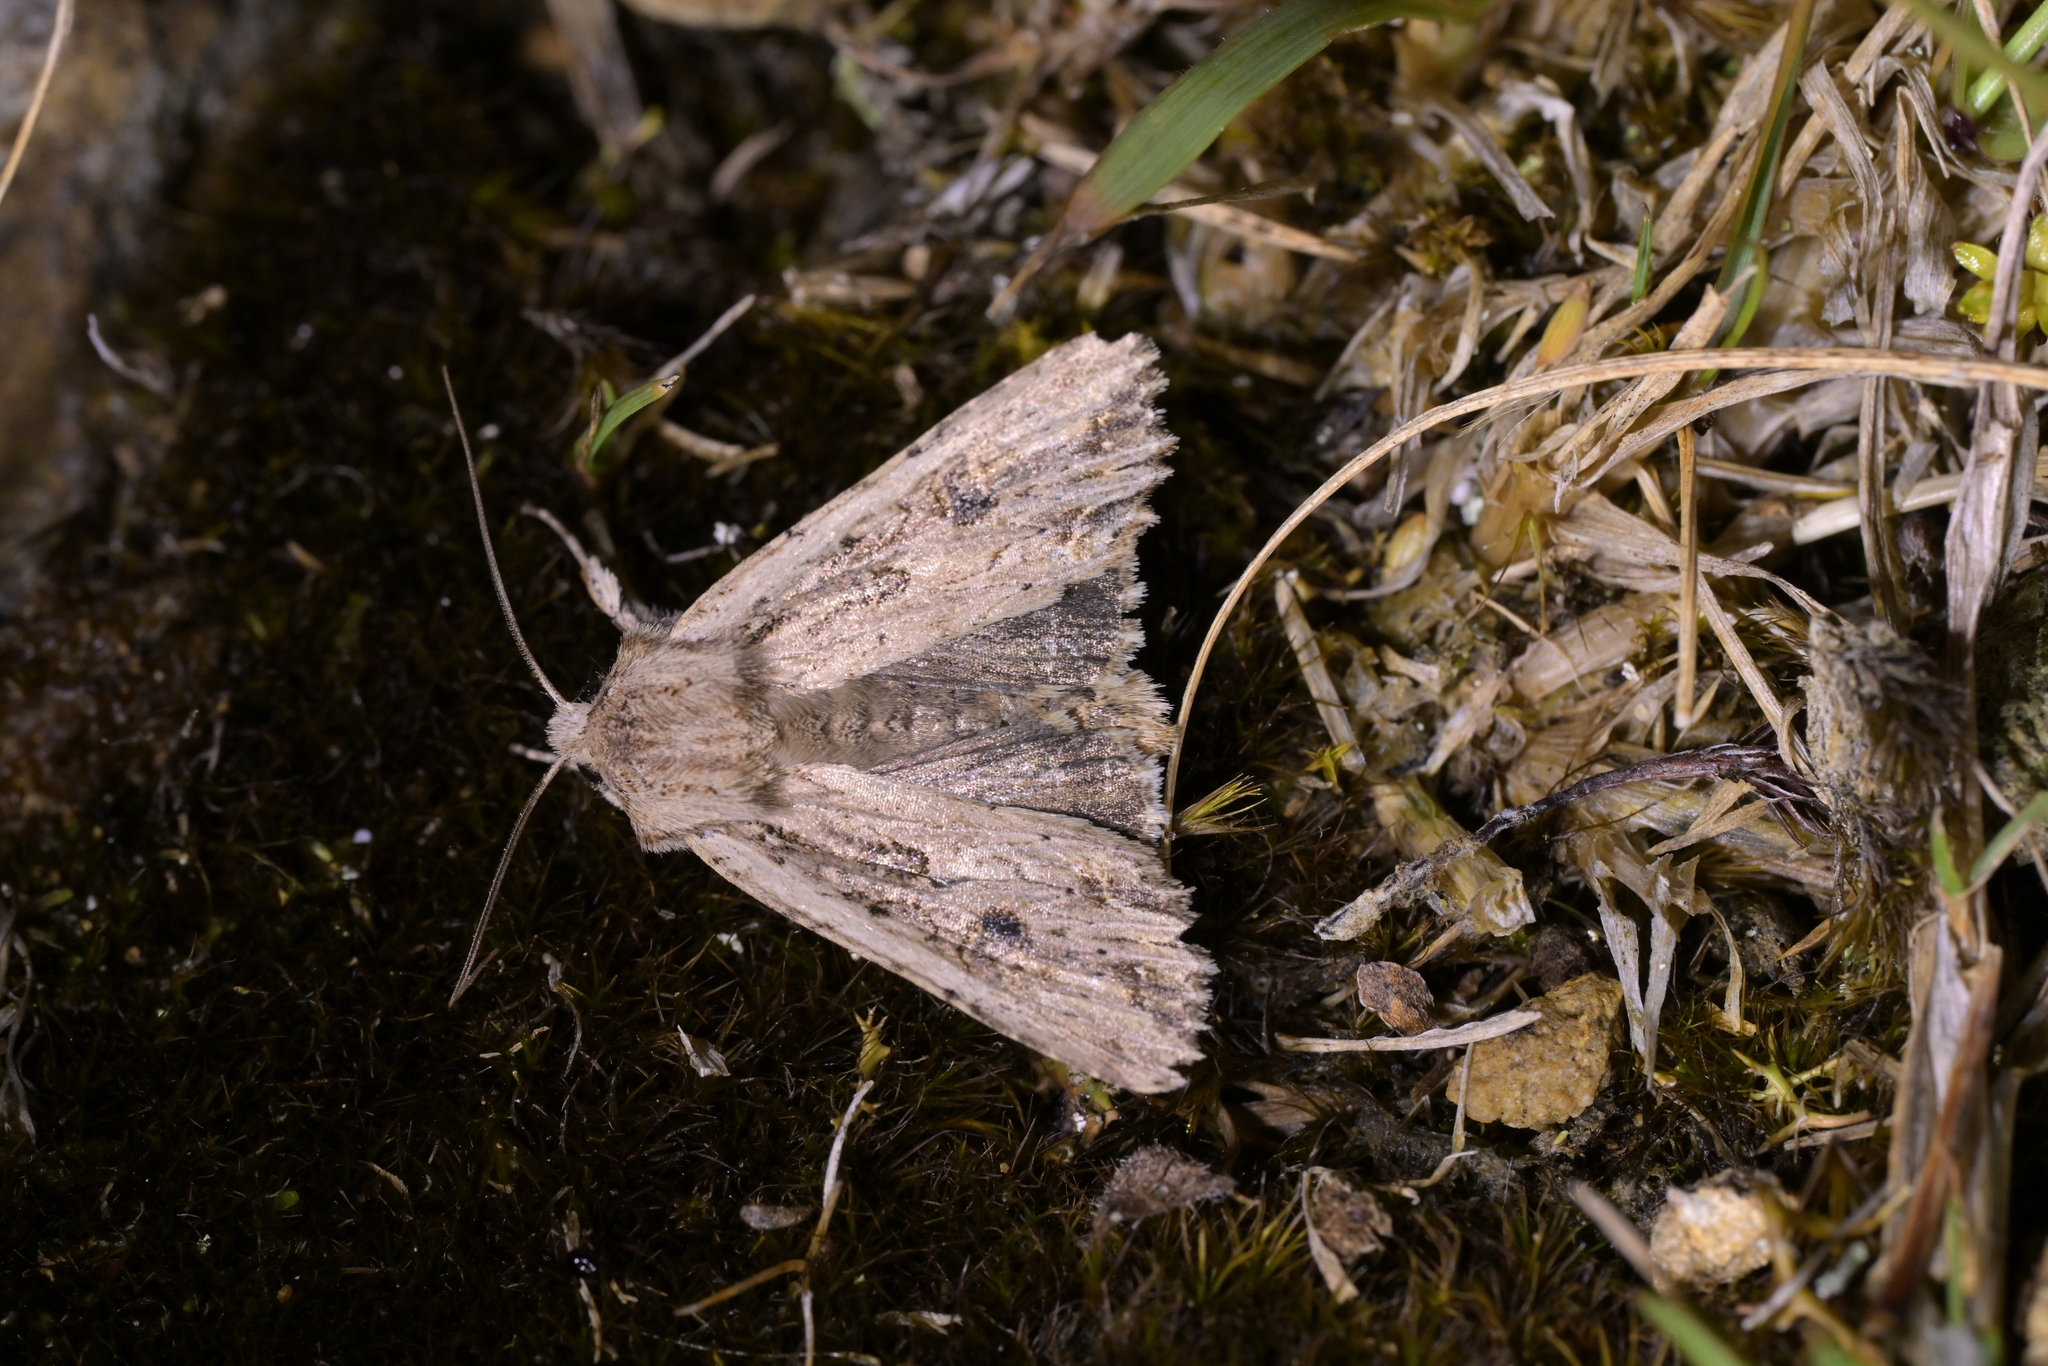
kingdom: Animalia
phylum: Arthropoda
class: Insecta
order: Lepidoptera
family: Noctuidae
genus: Ichneutica
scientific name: Ichneutica lignana
